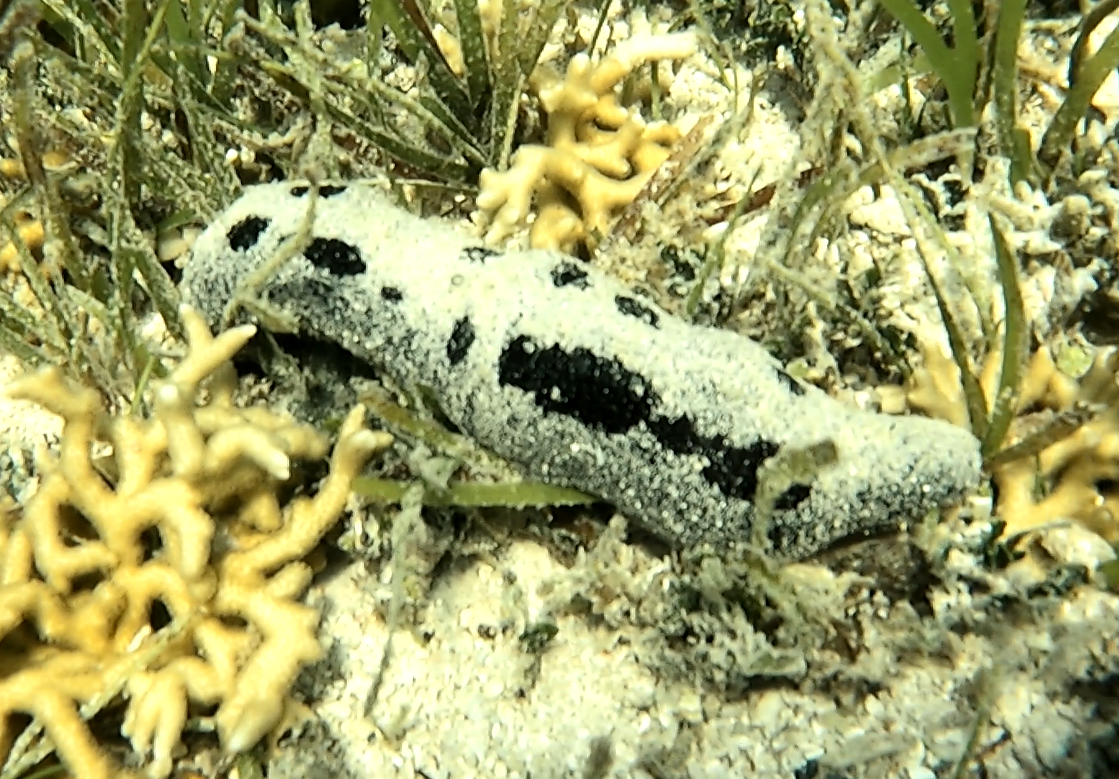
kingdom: Animalia
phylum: Echinodermata
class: Holothuroidea
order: Holothuriida
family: Holothuriidae
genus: Holothuria
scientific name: Holothuria atra
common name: Lollyfish
